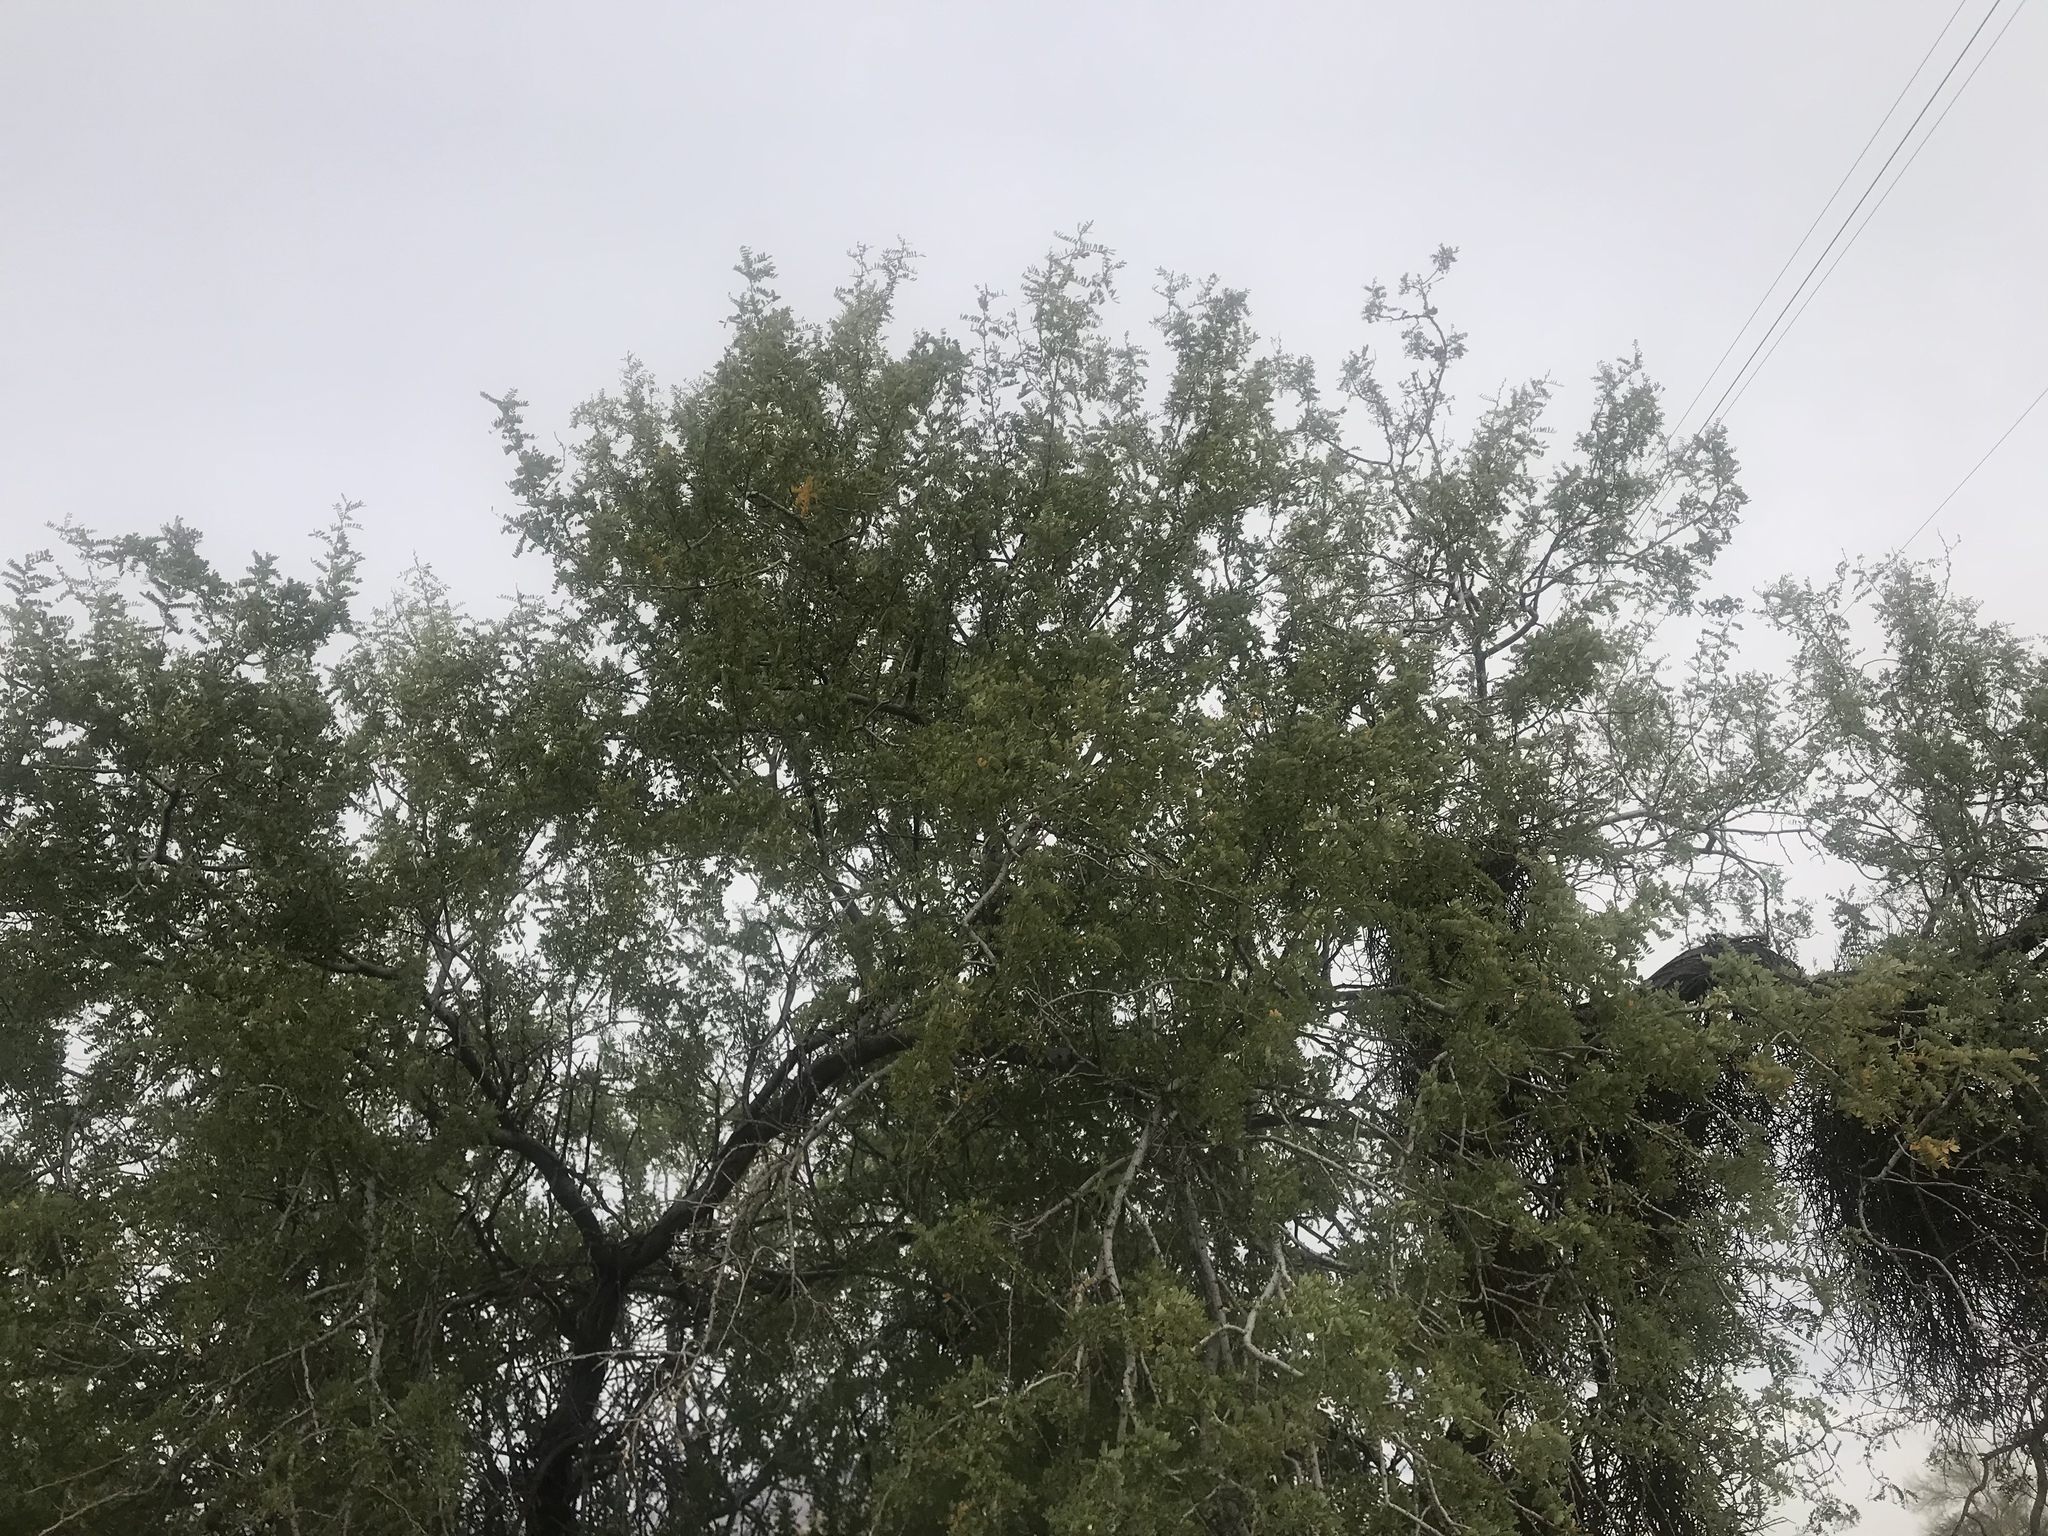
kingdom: Plantae
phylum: Tracheophyta
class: Magnoliopsida
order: Fabales
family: Fabaceae
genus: Olneya
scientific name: Olneya tesota
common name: Desert ironwood
